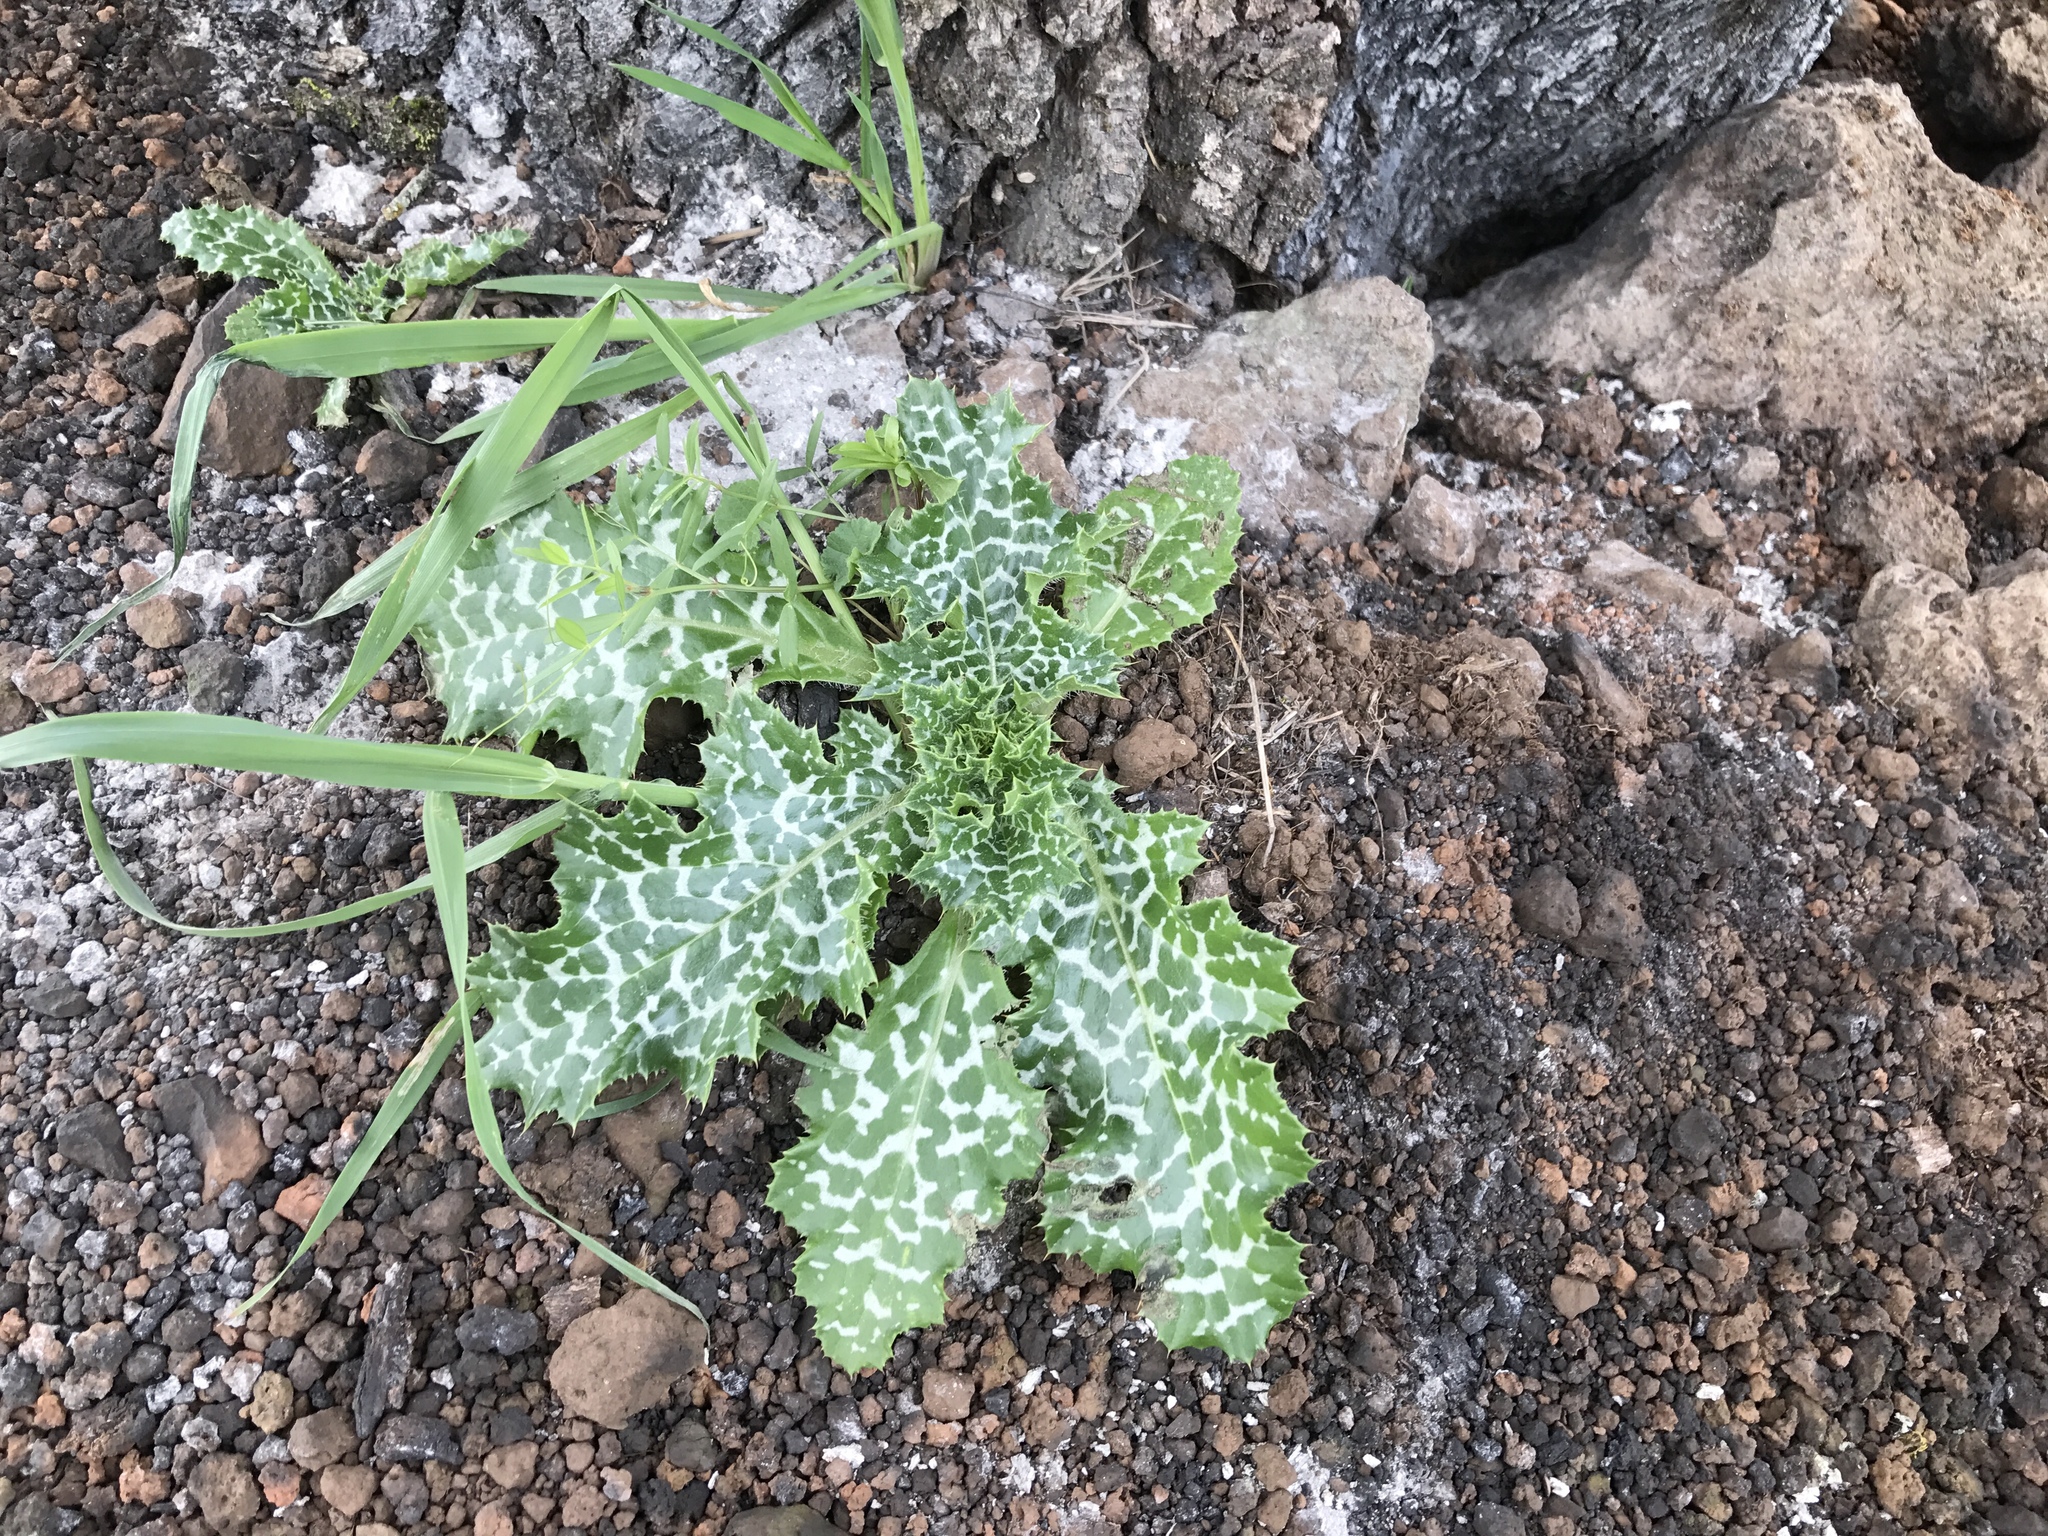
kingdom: Plantae
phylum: Tracheophyta
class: Magnoliopsida
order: Asterales
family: Asteraceae
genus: Silybum
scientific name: Silybum marianum
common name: Milk thistle
